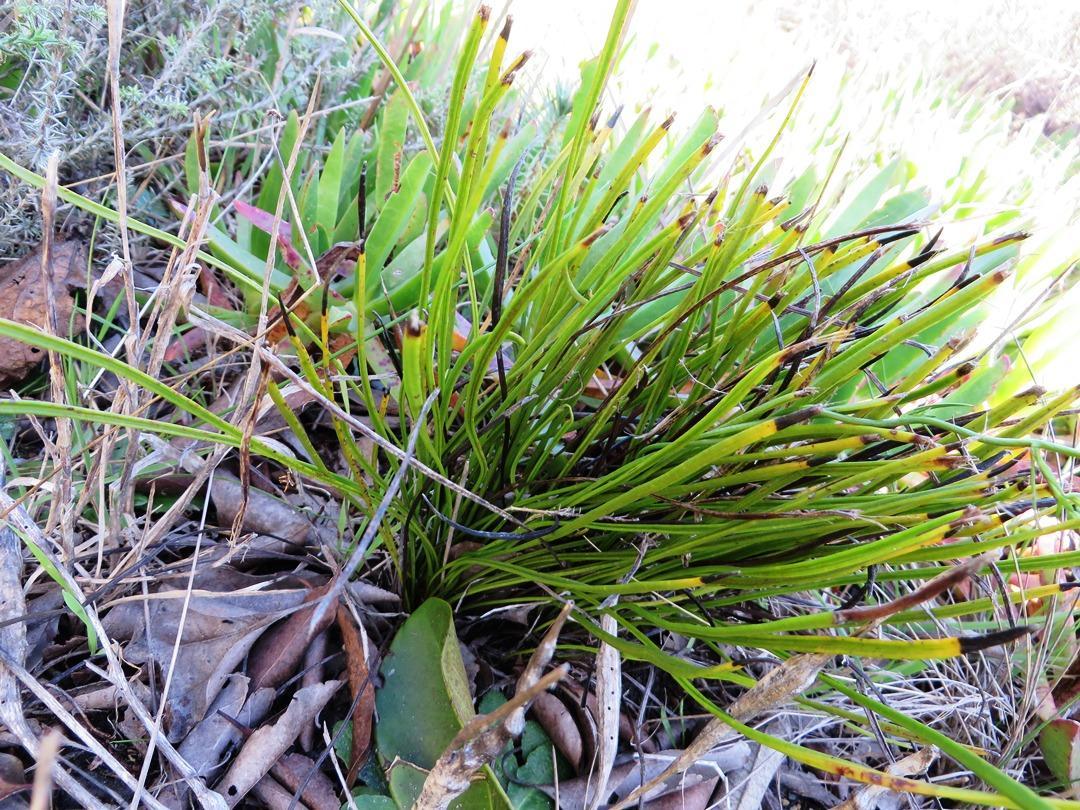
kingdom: Plantae
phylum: Tracheophyta
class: Magnoliopsida
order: Proteales
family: Proteaceae
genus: Protea
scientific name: Protea scabra
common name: Sandpaper-leaf sugarbush
